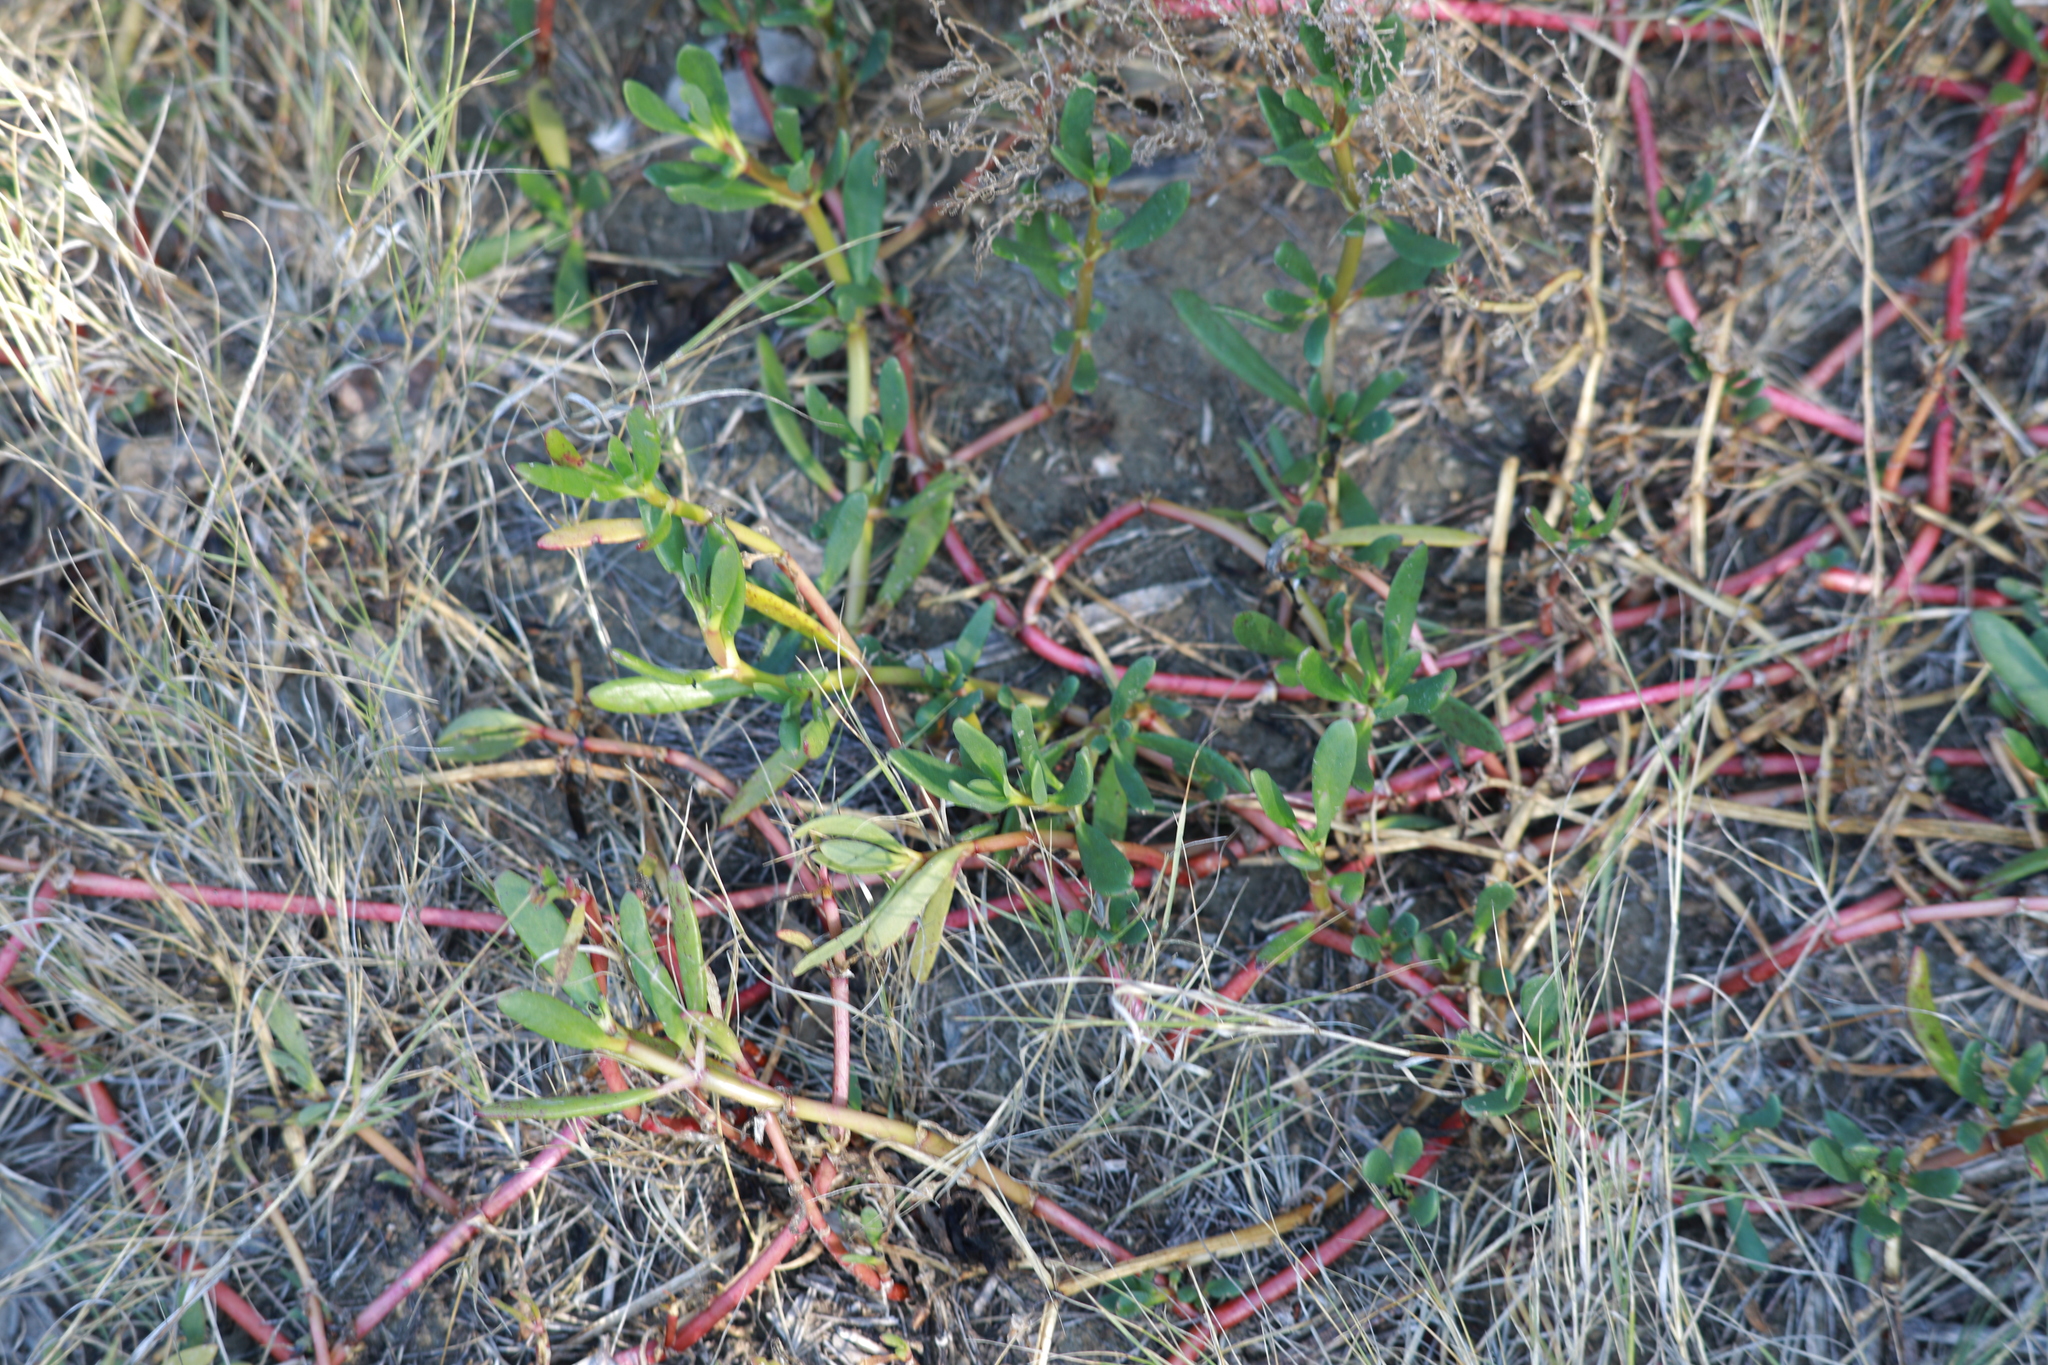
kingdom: Plantae
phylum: Tracheophyta
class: Magnoliopsida
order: Caryophyllales
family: Aizoaceae
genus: Sesuvium
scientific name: Sesuvium portulacastrum
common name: Sea-purslane
